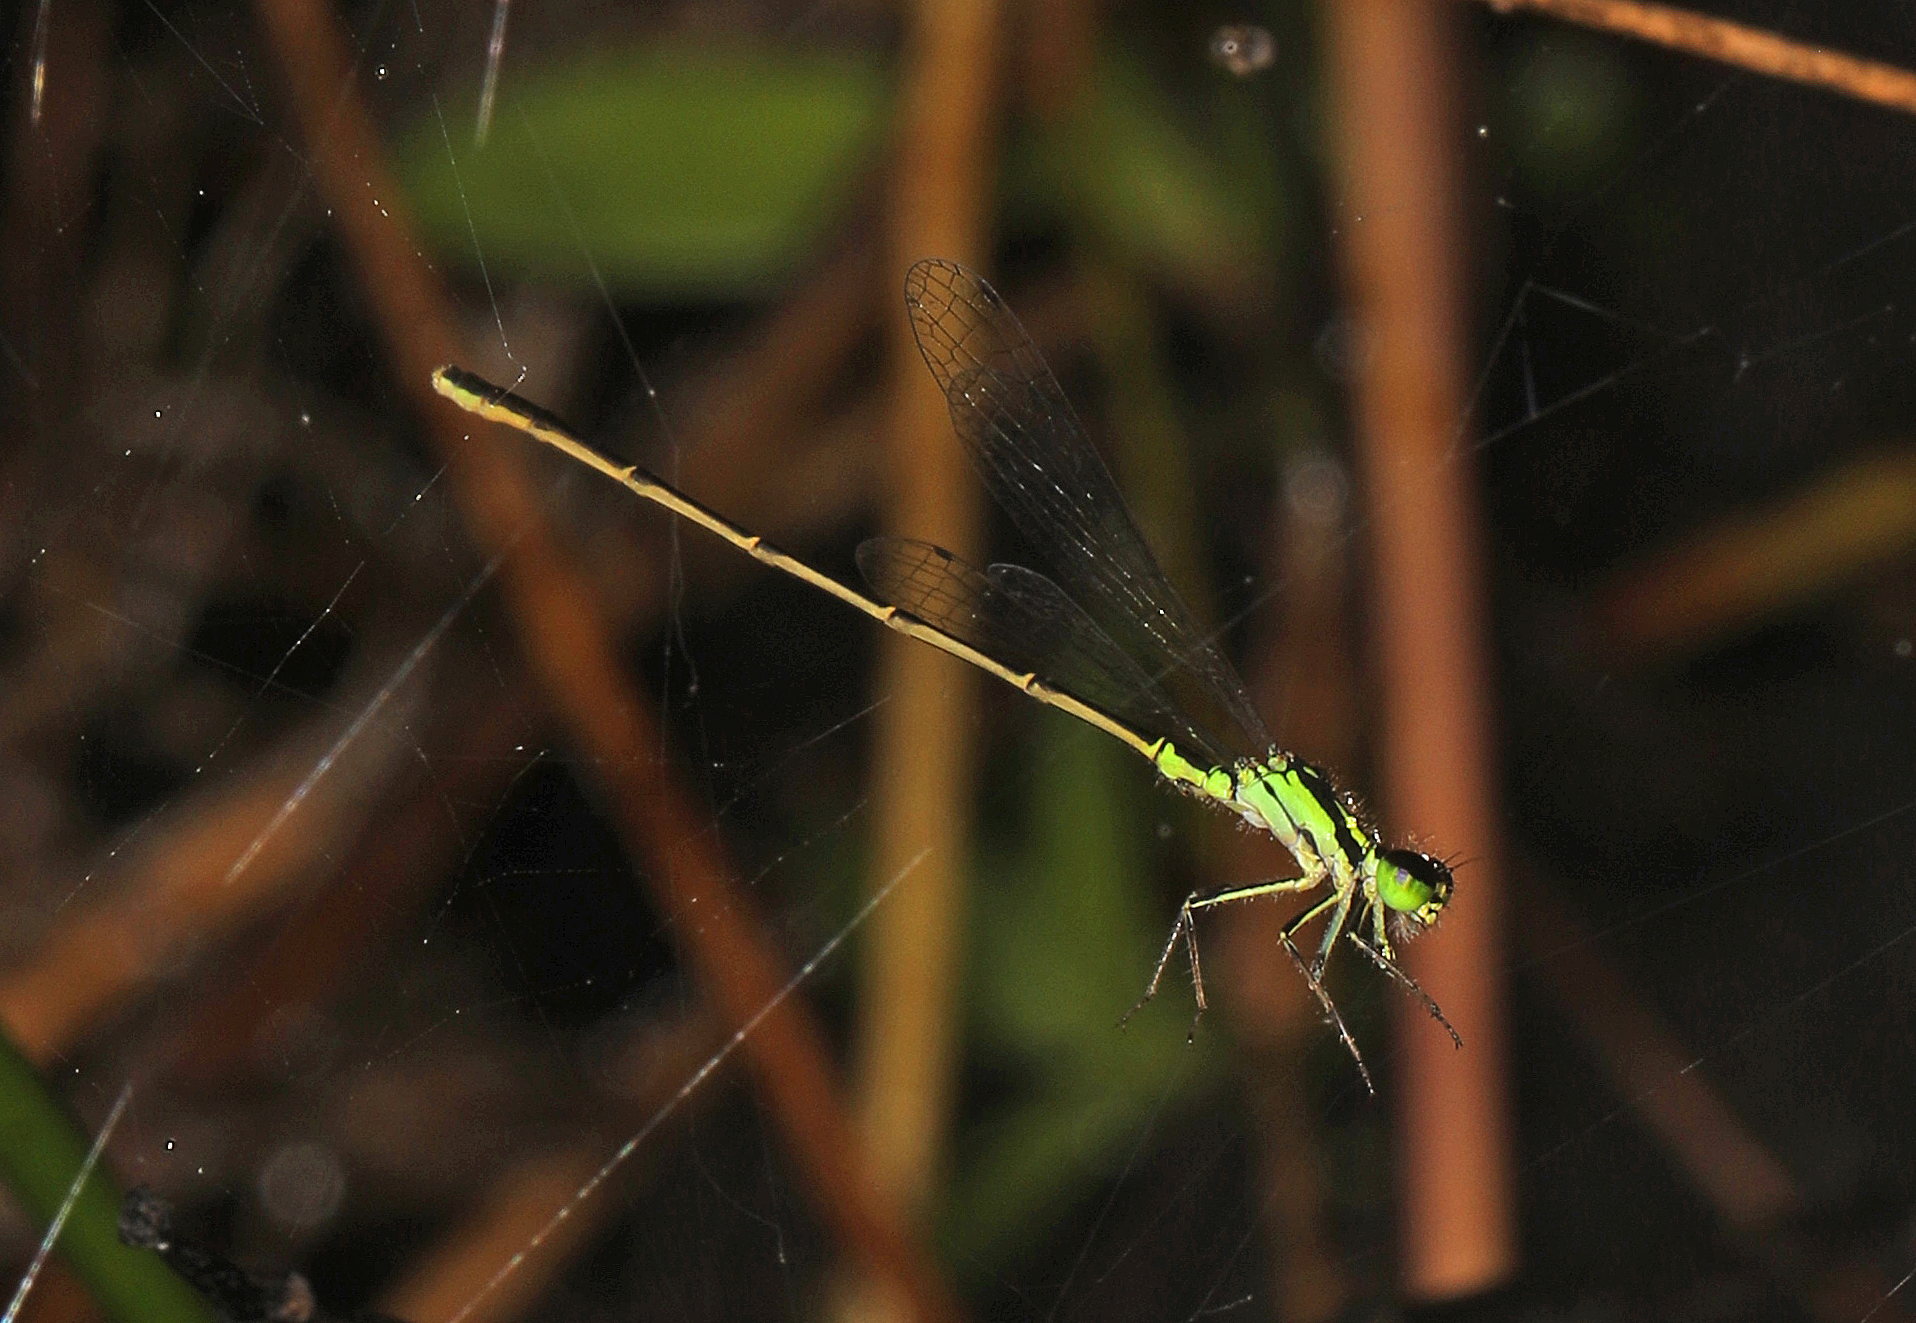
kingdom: Animalia
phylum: Arthropoda
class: Insecta
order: Odonata
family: Coenagrionidae
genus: Ischnura
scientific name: Ischnura posita
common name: Fragile forktail
